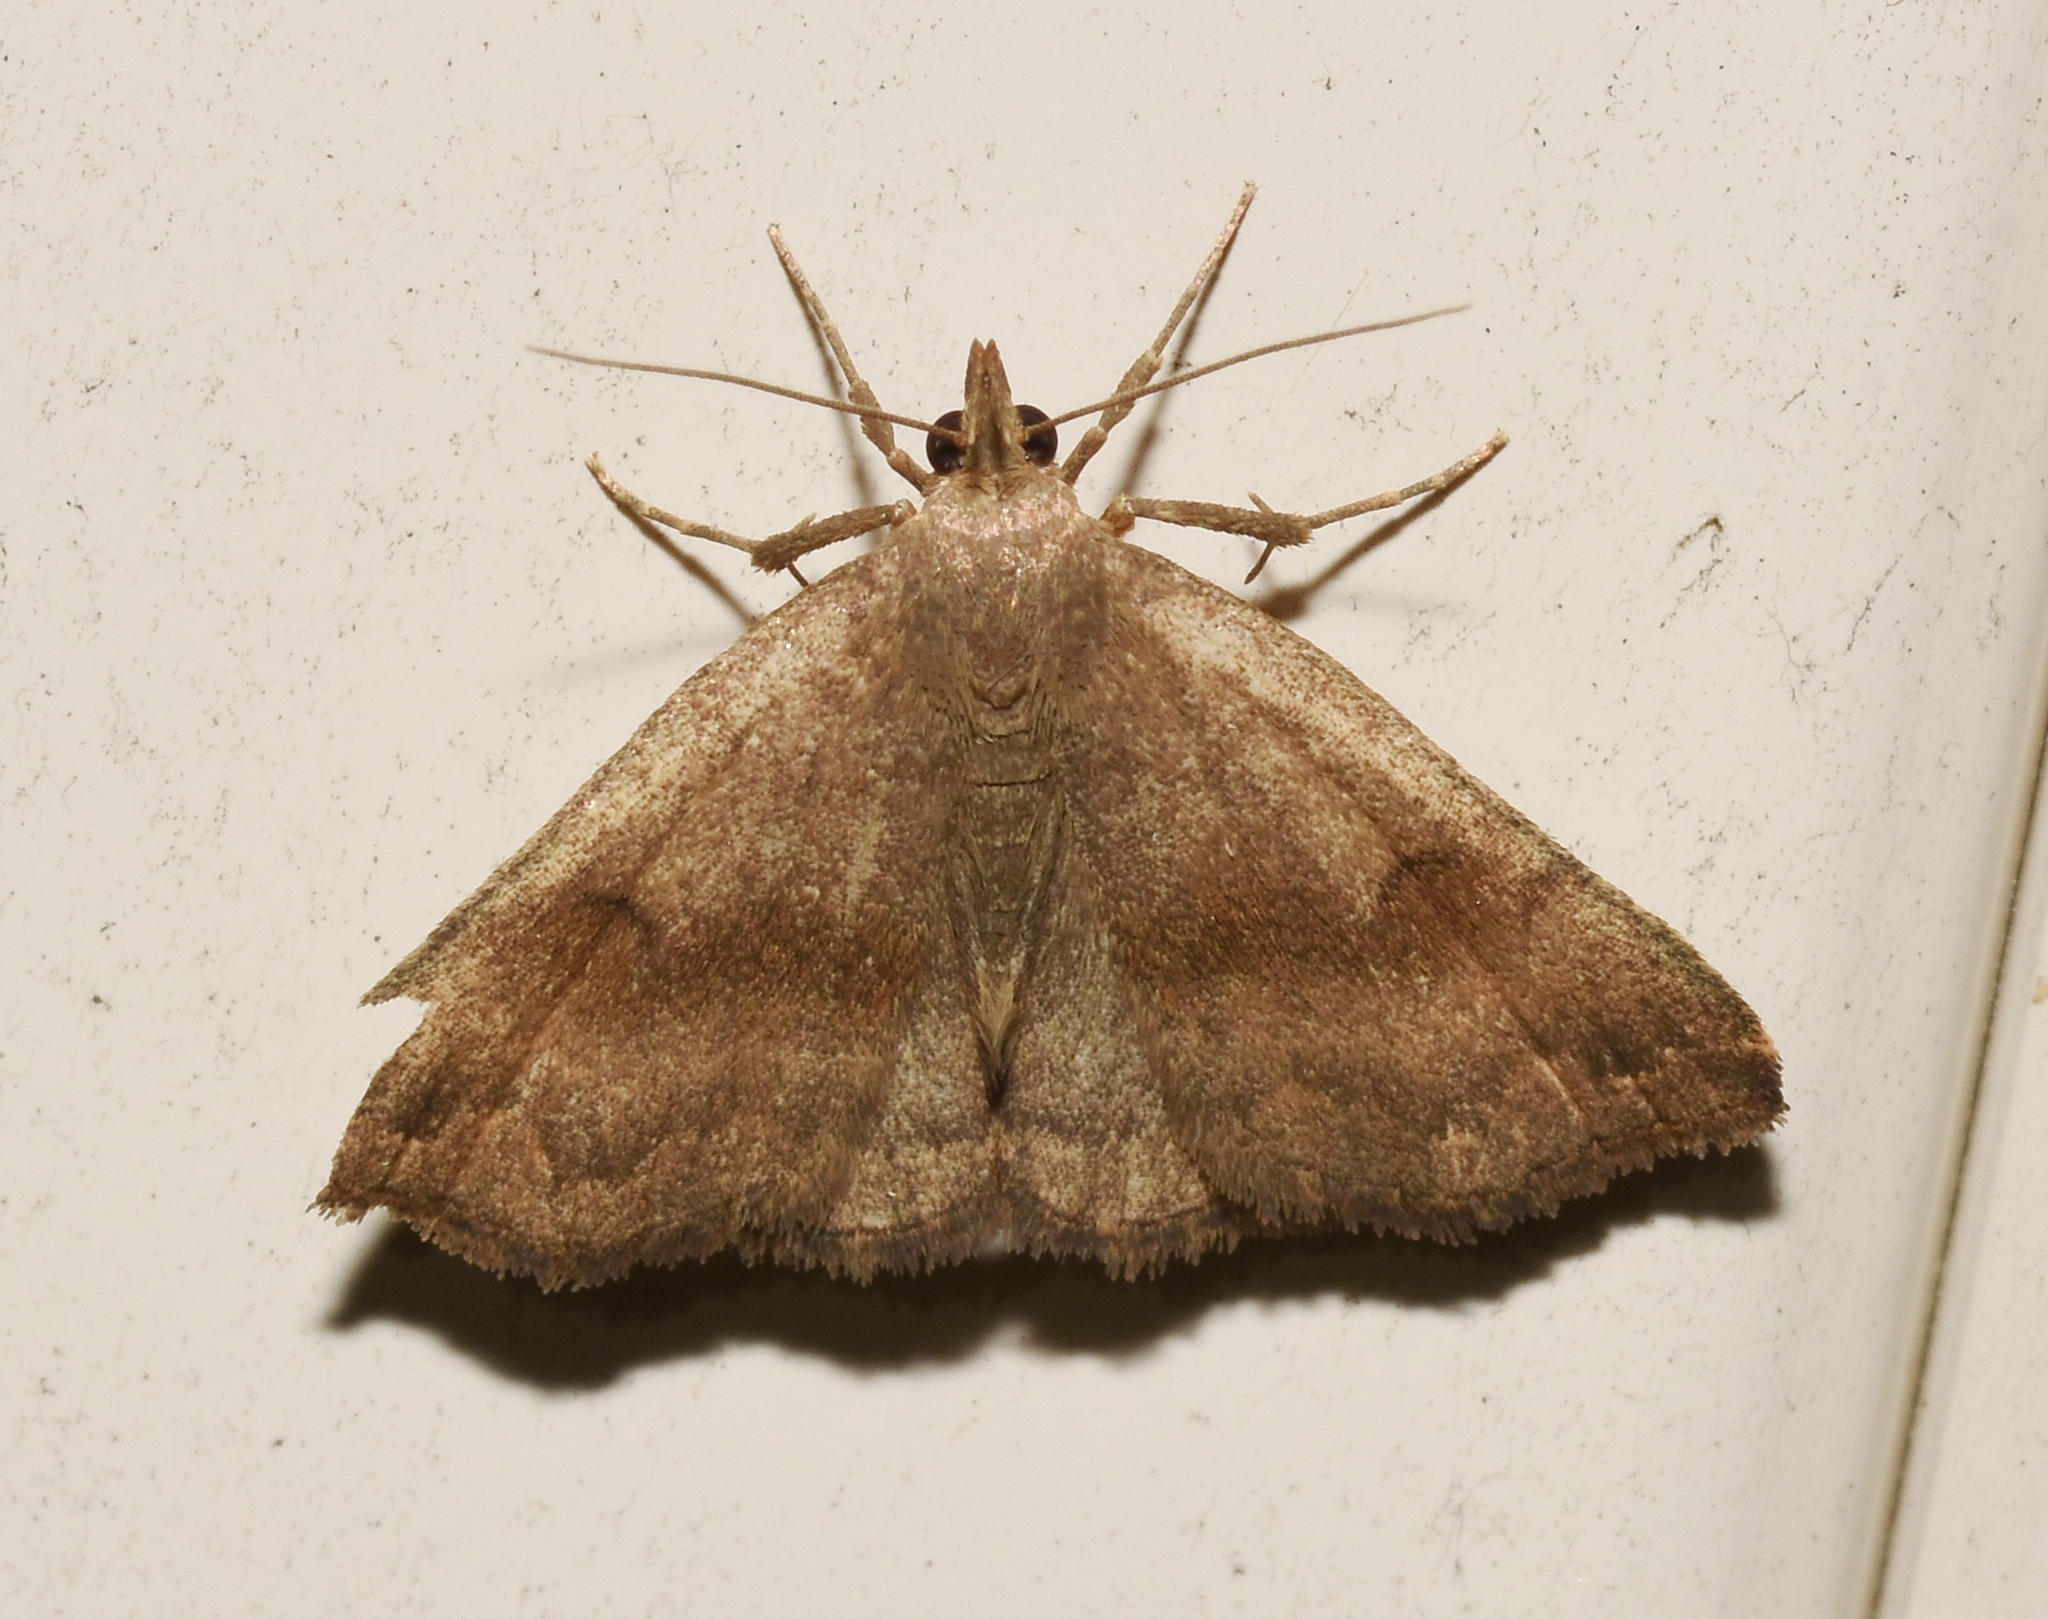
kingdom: Animalia
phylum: Arthropoda
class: Insecta
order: Lepidoptera
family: Erebidae
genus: Phalaenostola
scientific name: Phalaenostola eumelusalis
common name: Dark phalaenostola moth
